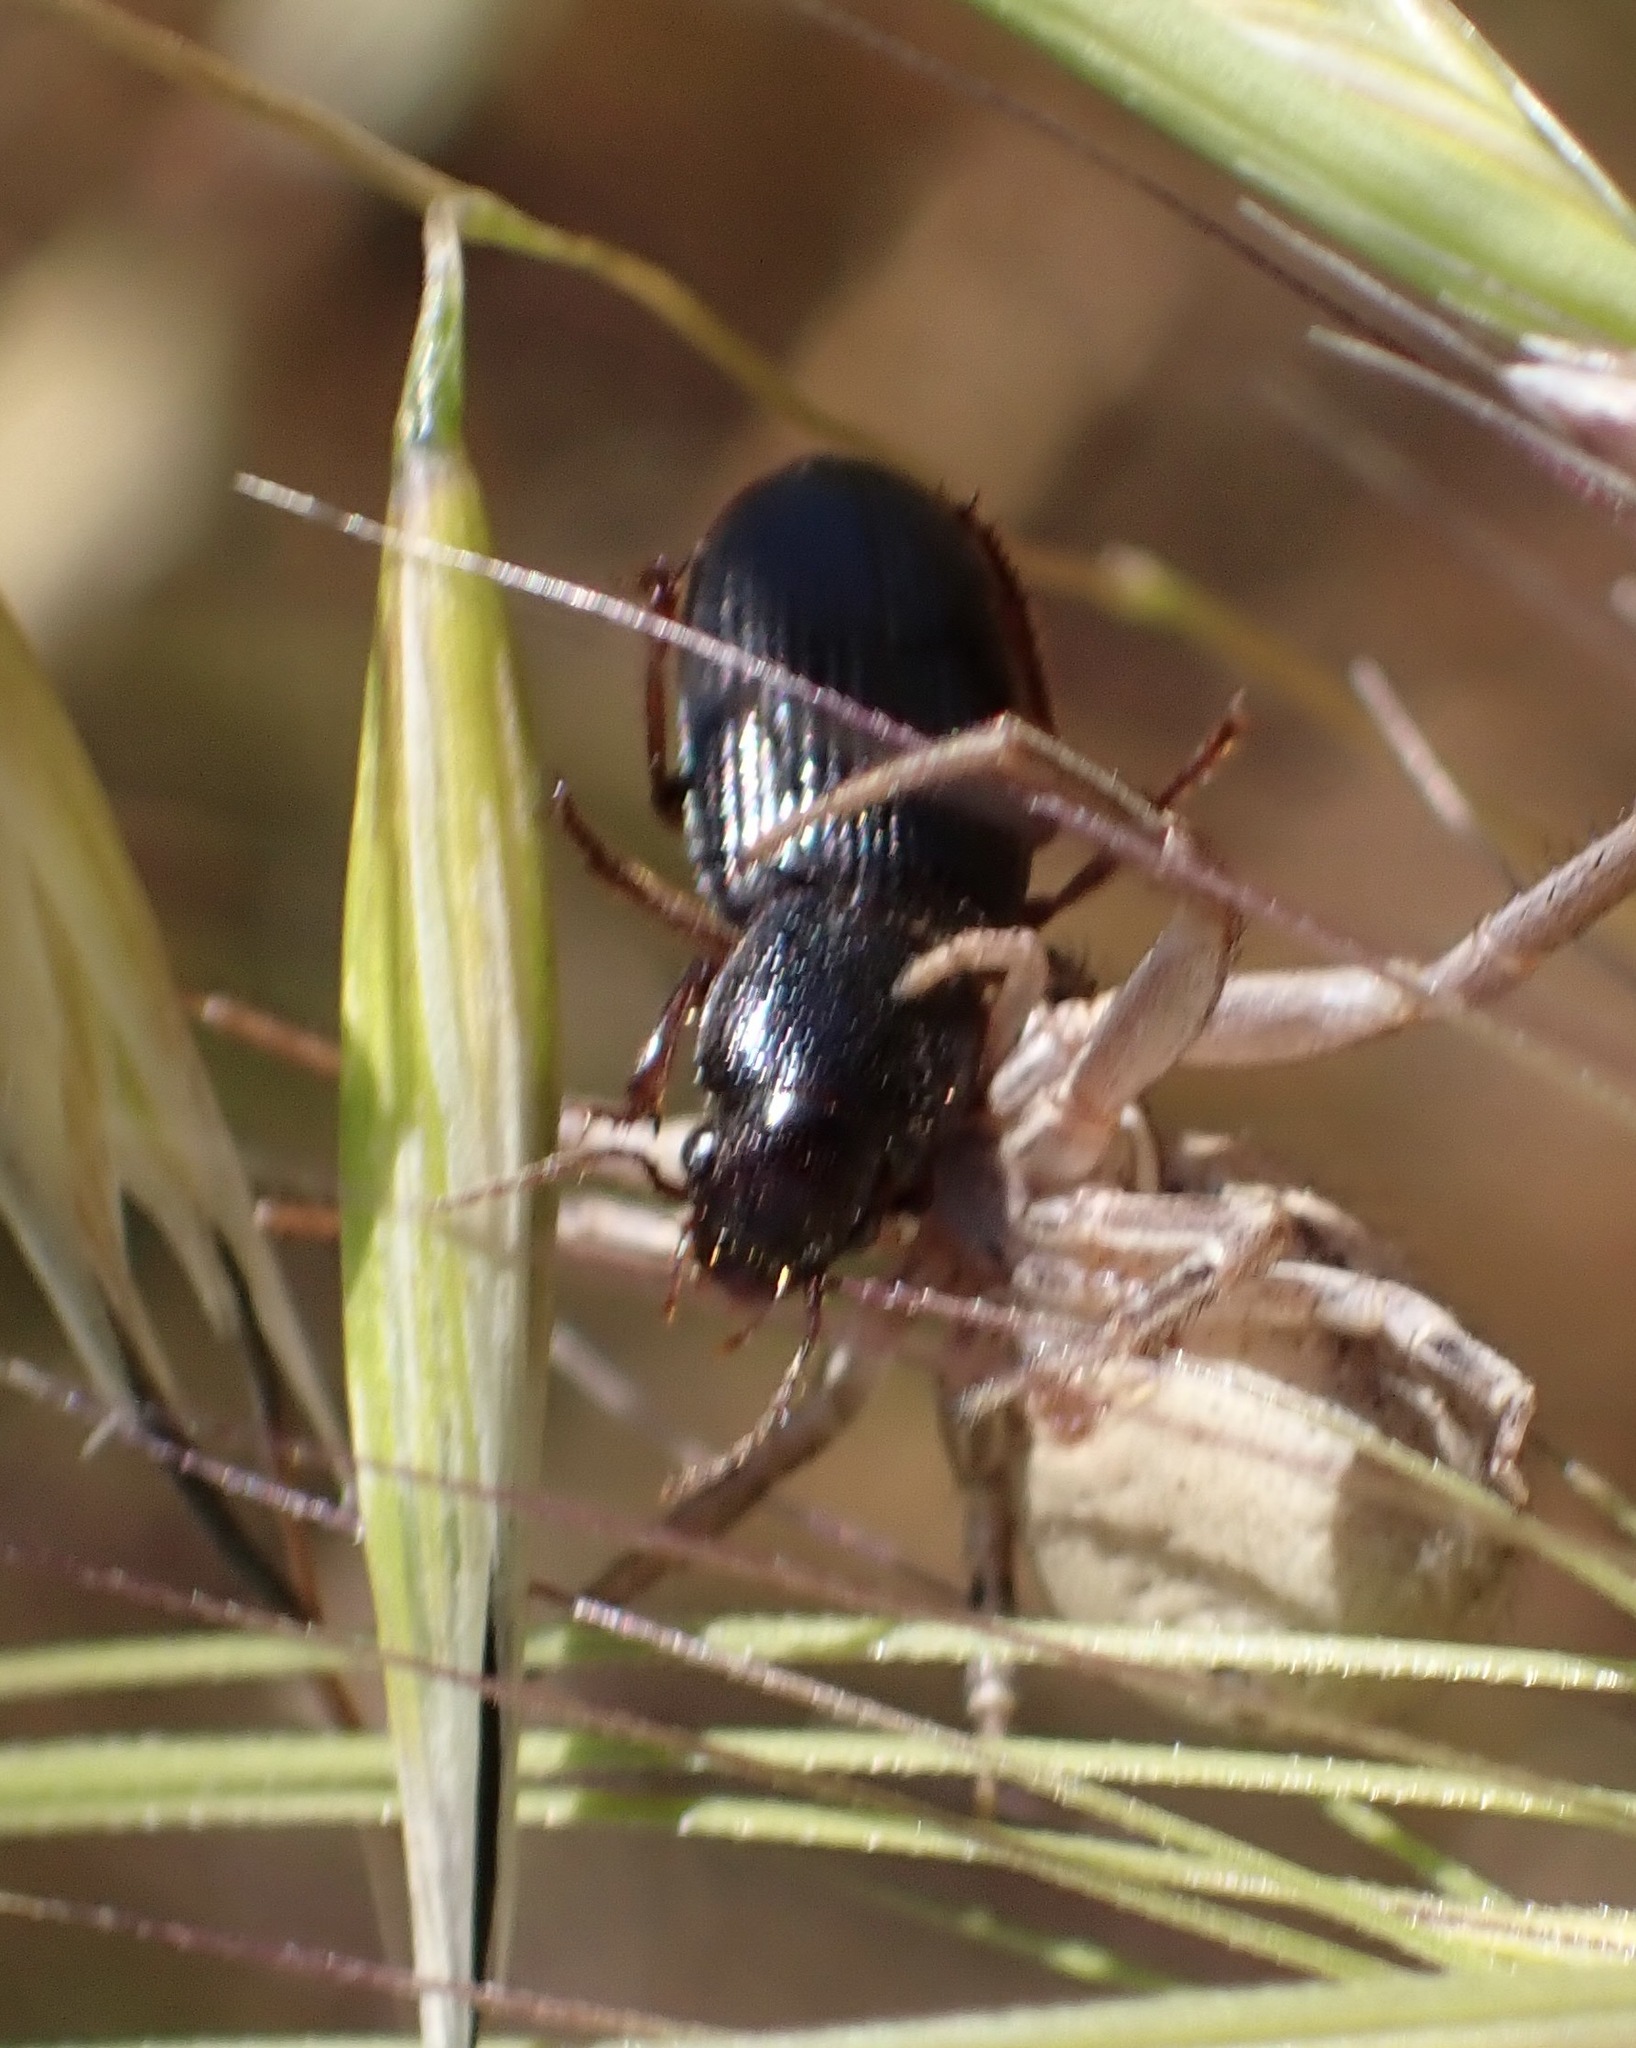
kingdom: Animalia
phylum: Arthropoda
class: Insecta
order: Coleoptera
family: Carabidae
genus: Dicheirus
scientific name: Dicheirus piceus
